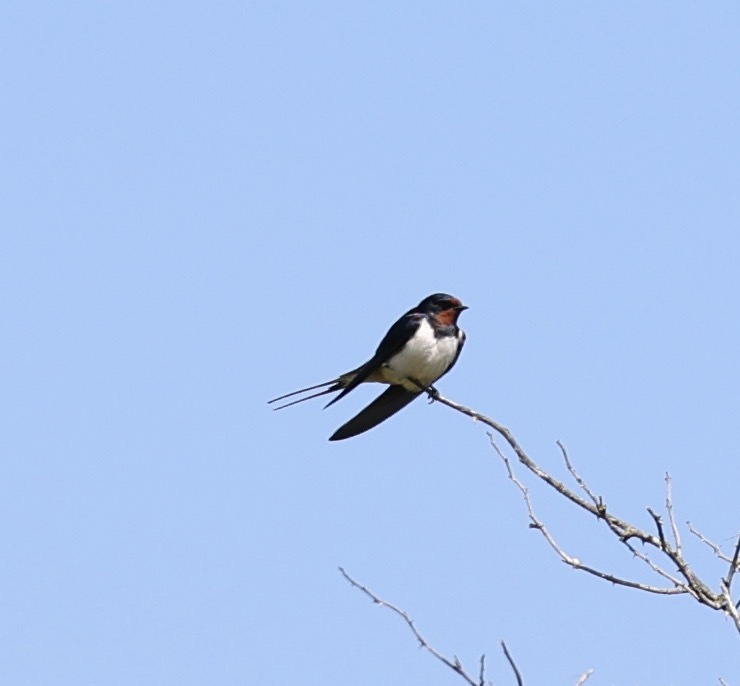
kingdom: Animalia
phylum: Chordata
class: Aves
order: Passeriformes
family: Hirundinidae
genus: Hirundo
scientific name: Hirundo rustica
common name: Barn swallow
